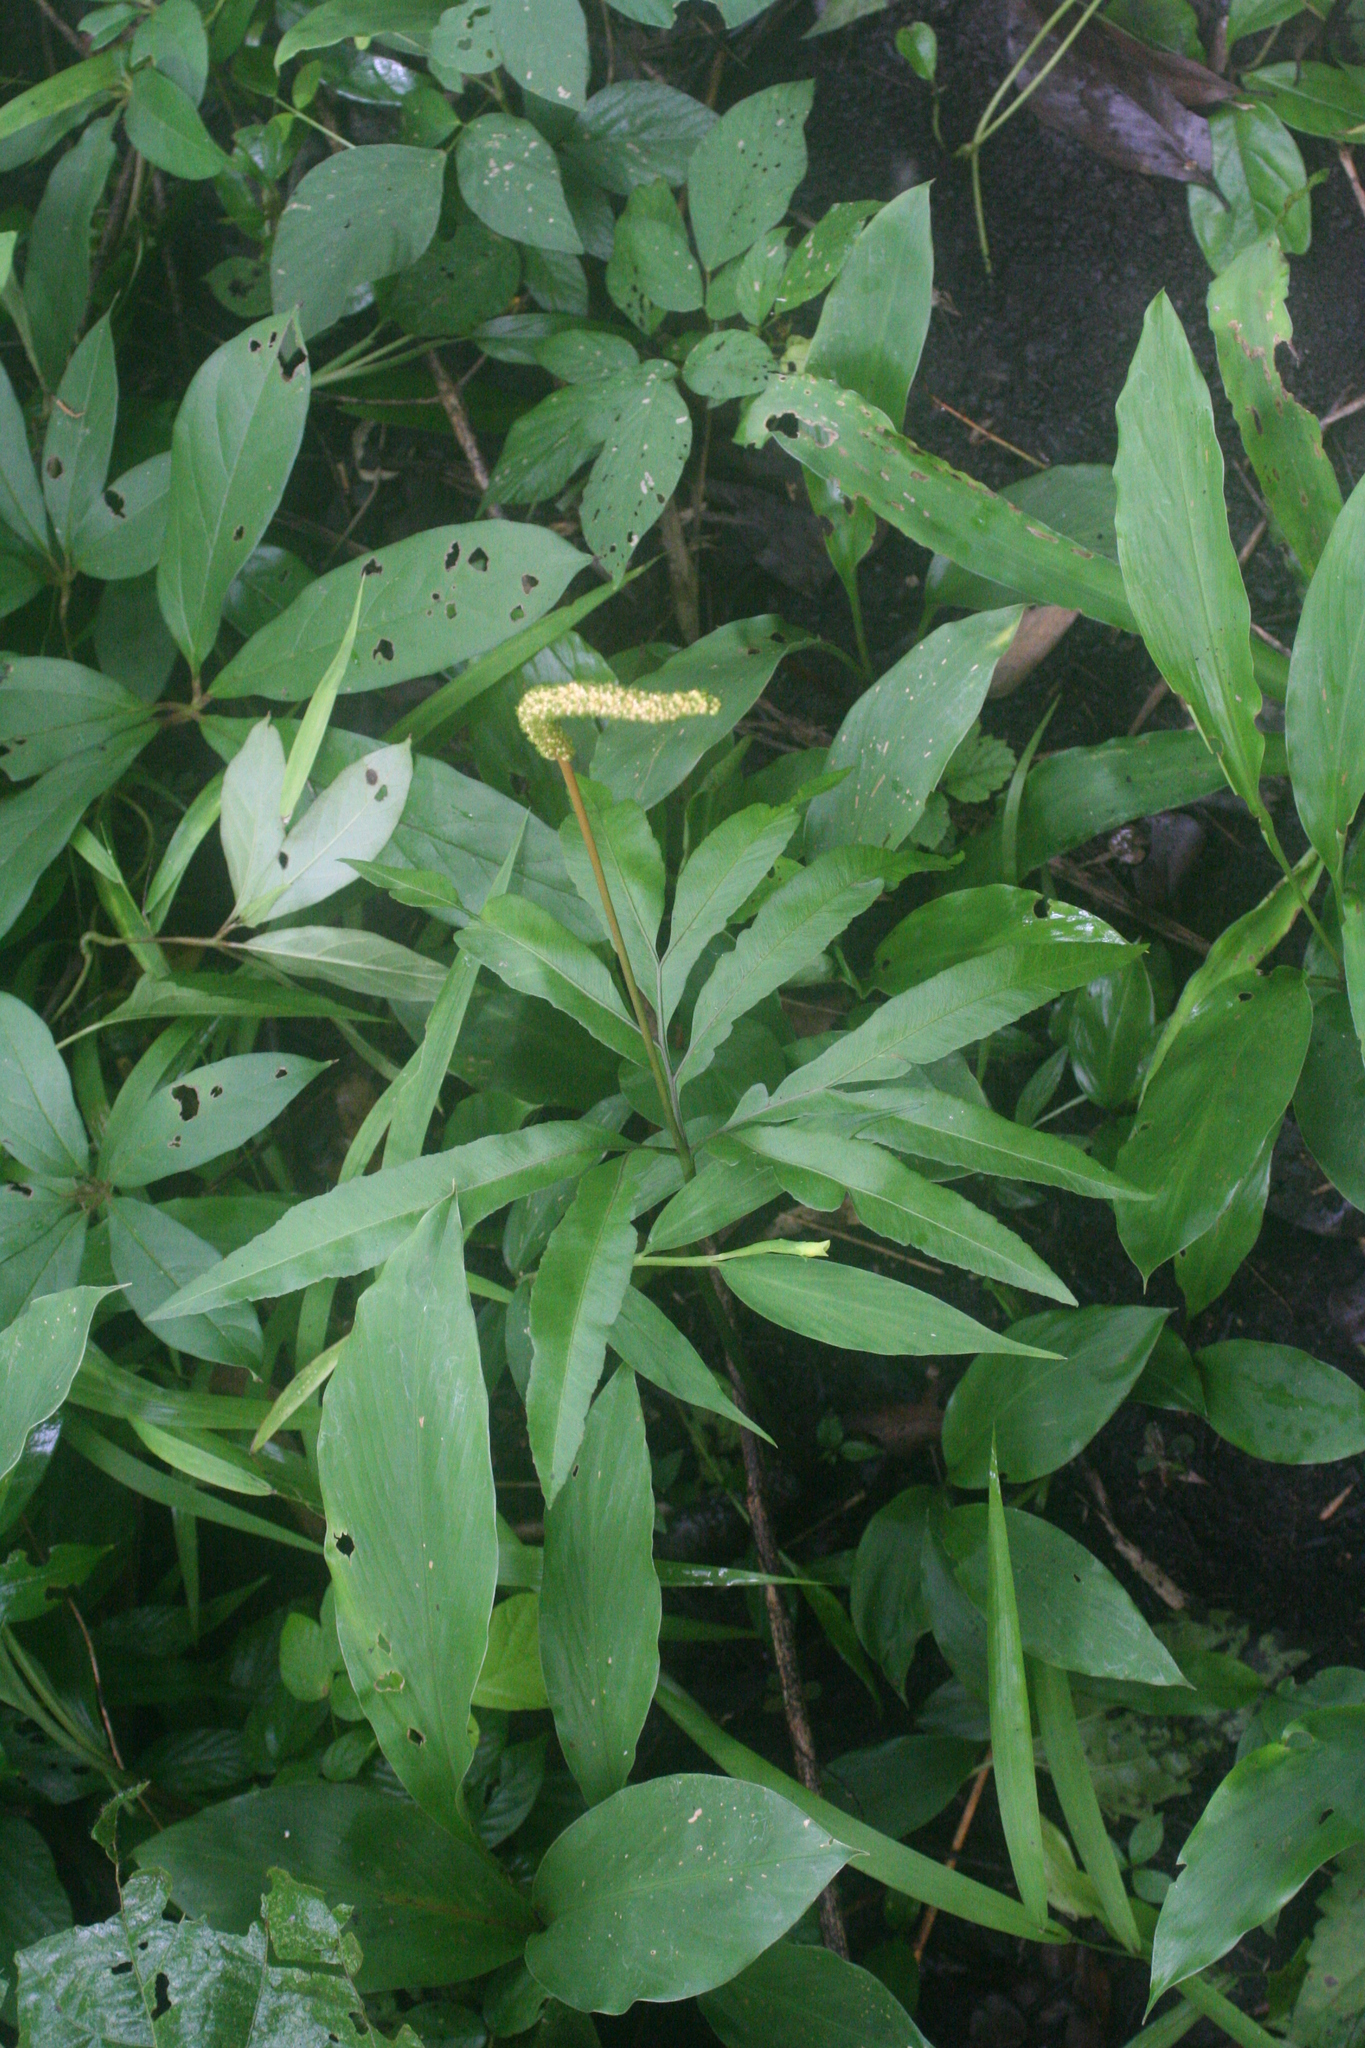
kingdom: Plantae
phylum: Tracheophyta
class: Polypodiopsida
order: Ophioglossales
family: Ophioglossaceae
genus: Helminthostachys
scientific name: Helminthostachys zeylanica
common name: Flowering fern
